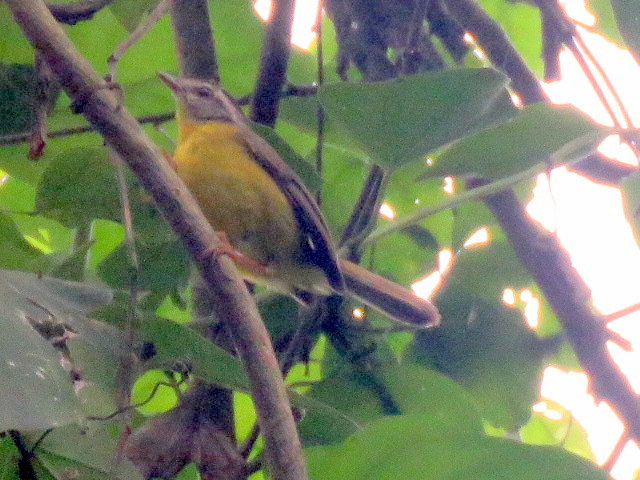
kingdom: Animalia
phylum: Chordata
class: Aves
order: Passeriformes
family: Parulidae
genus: Basileuterus
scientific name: Basileuterus culicivorus
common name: Golden-crowned warbler
